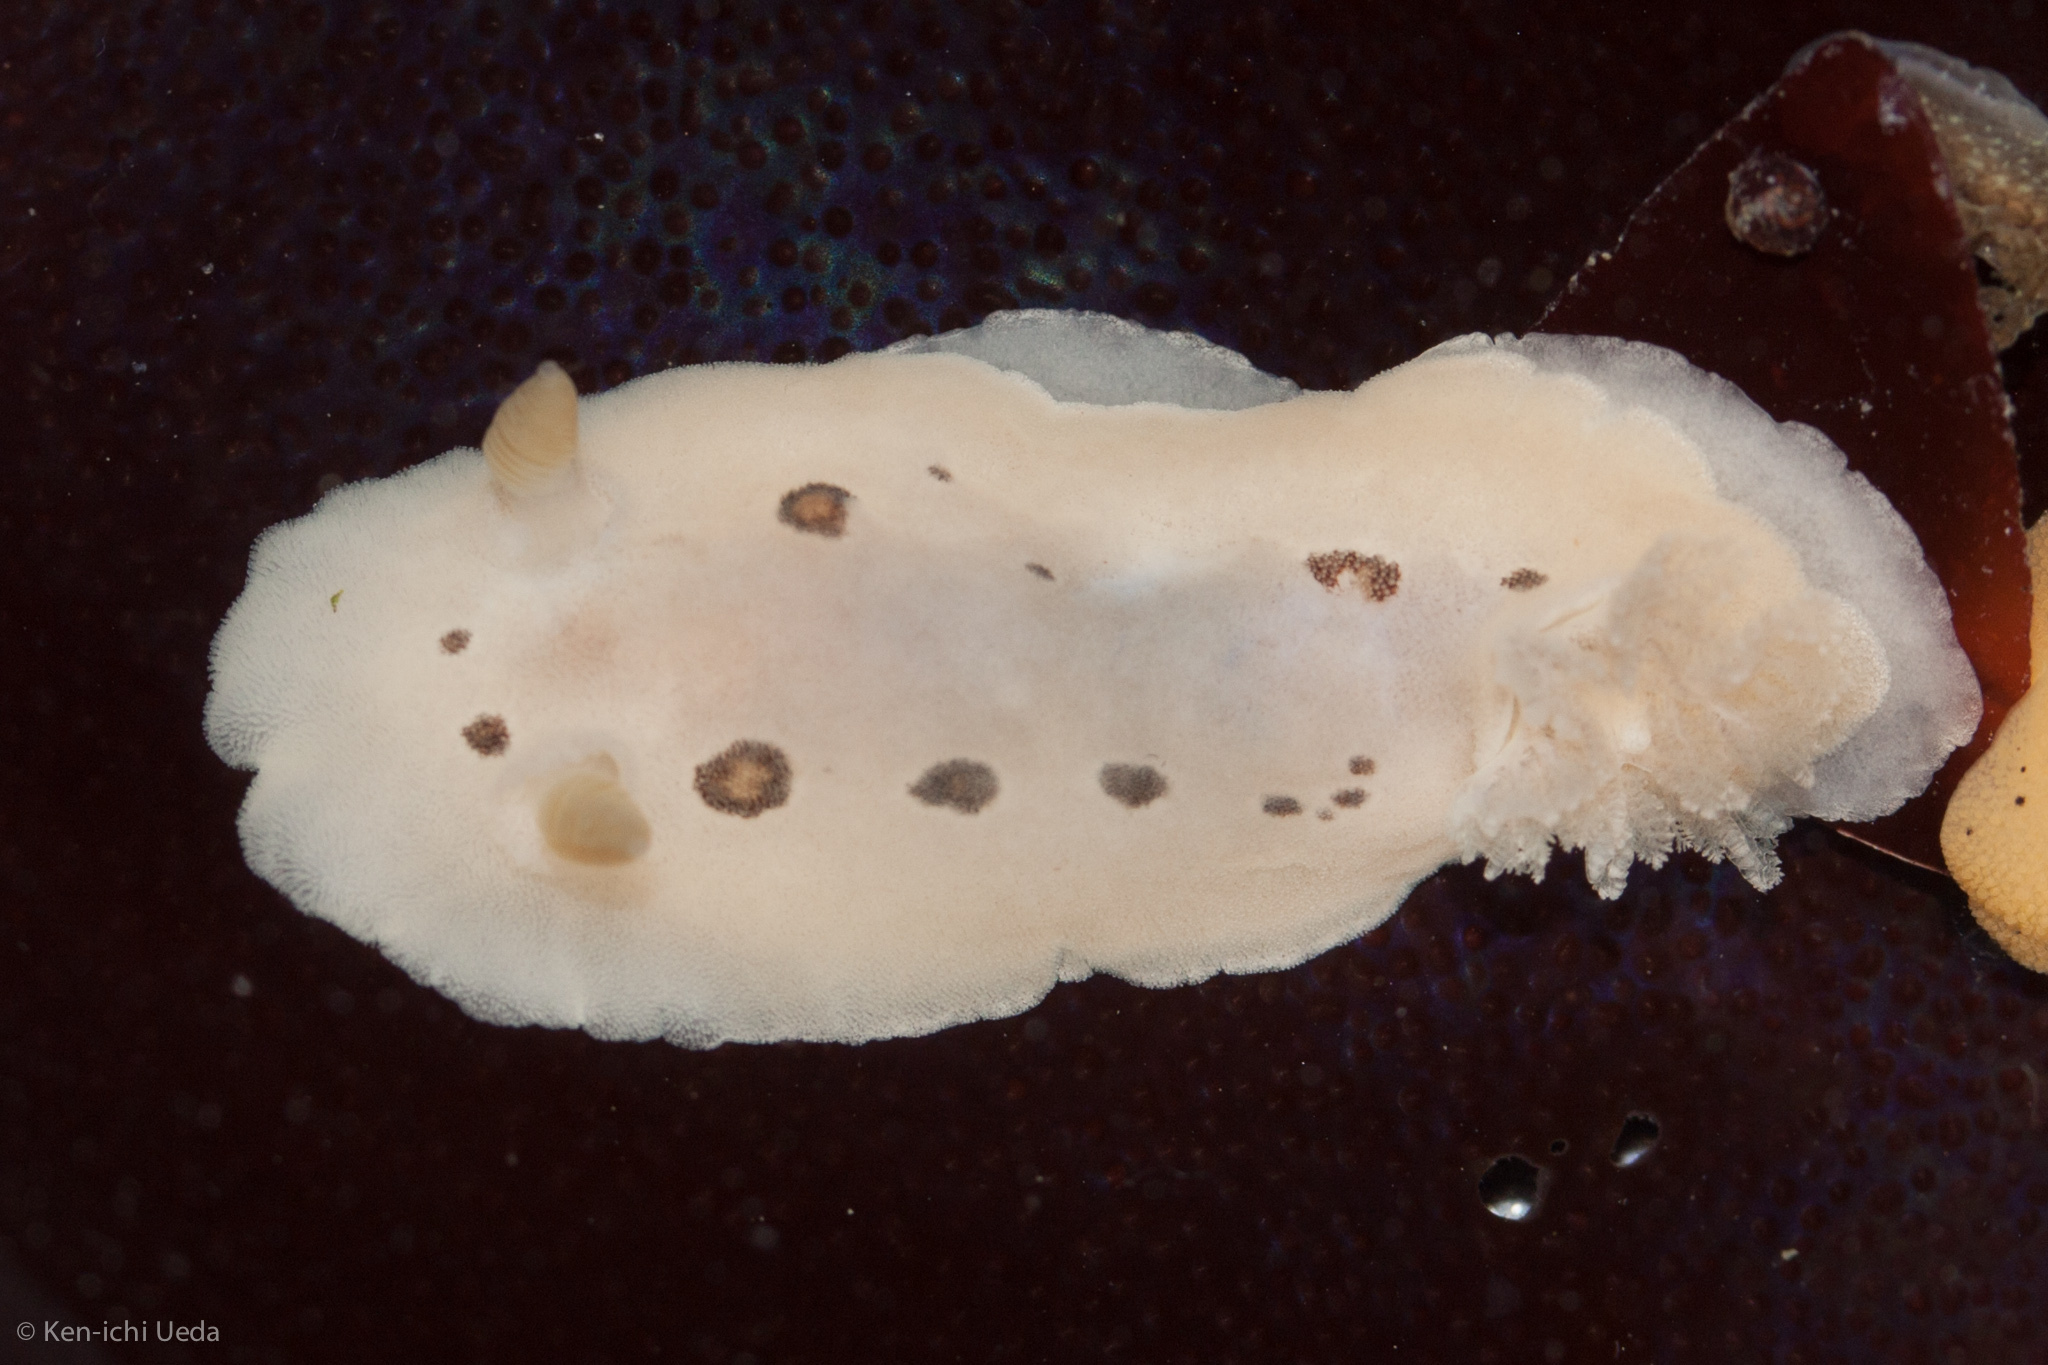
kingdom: Animalia
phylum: Mollusca
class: Gastropoda
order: Nudibranchia
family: Discodorididae
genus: Diaulula
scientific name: Diaulula sandiegensis
